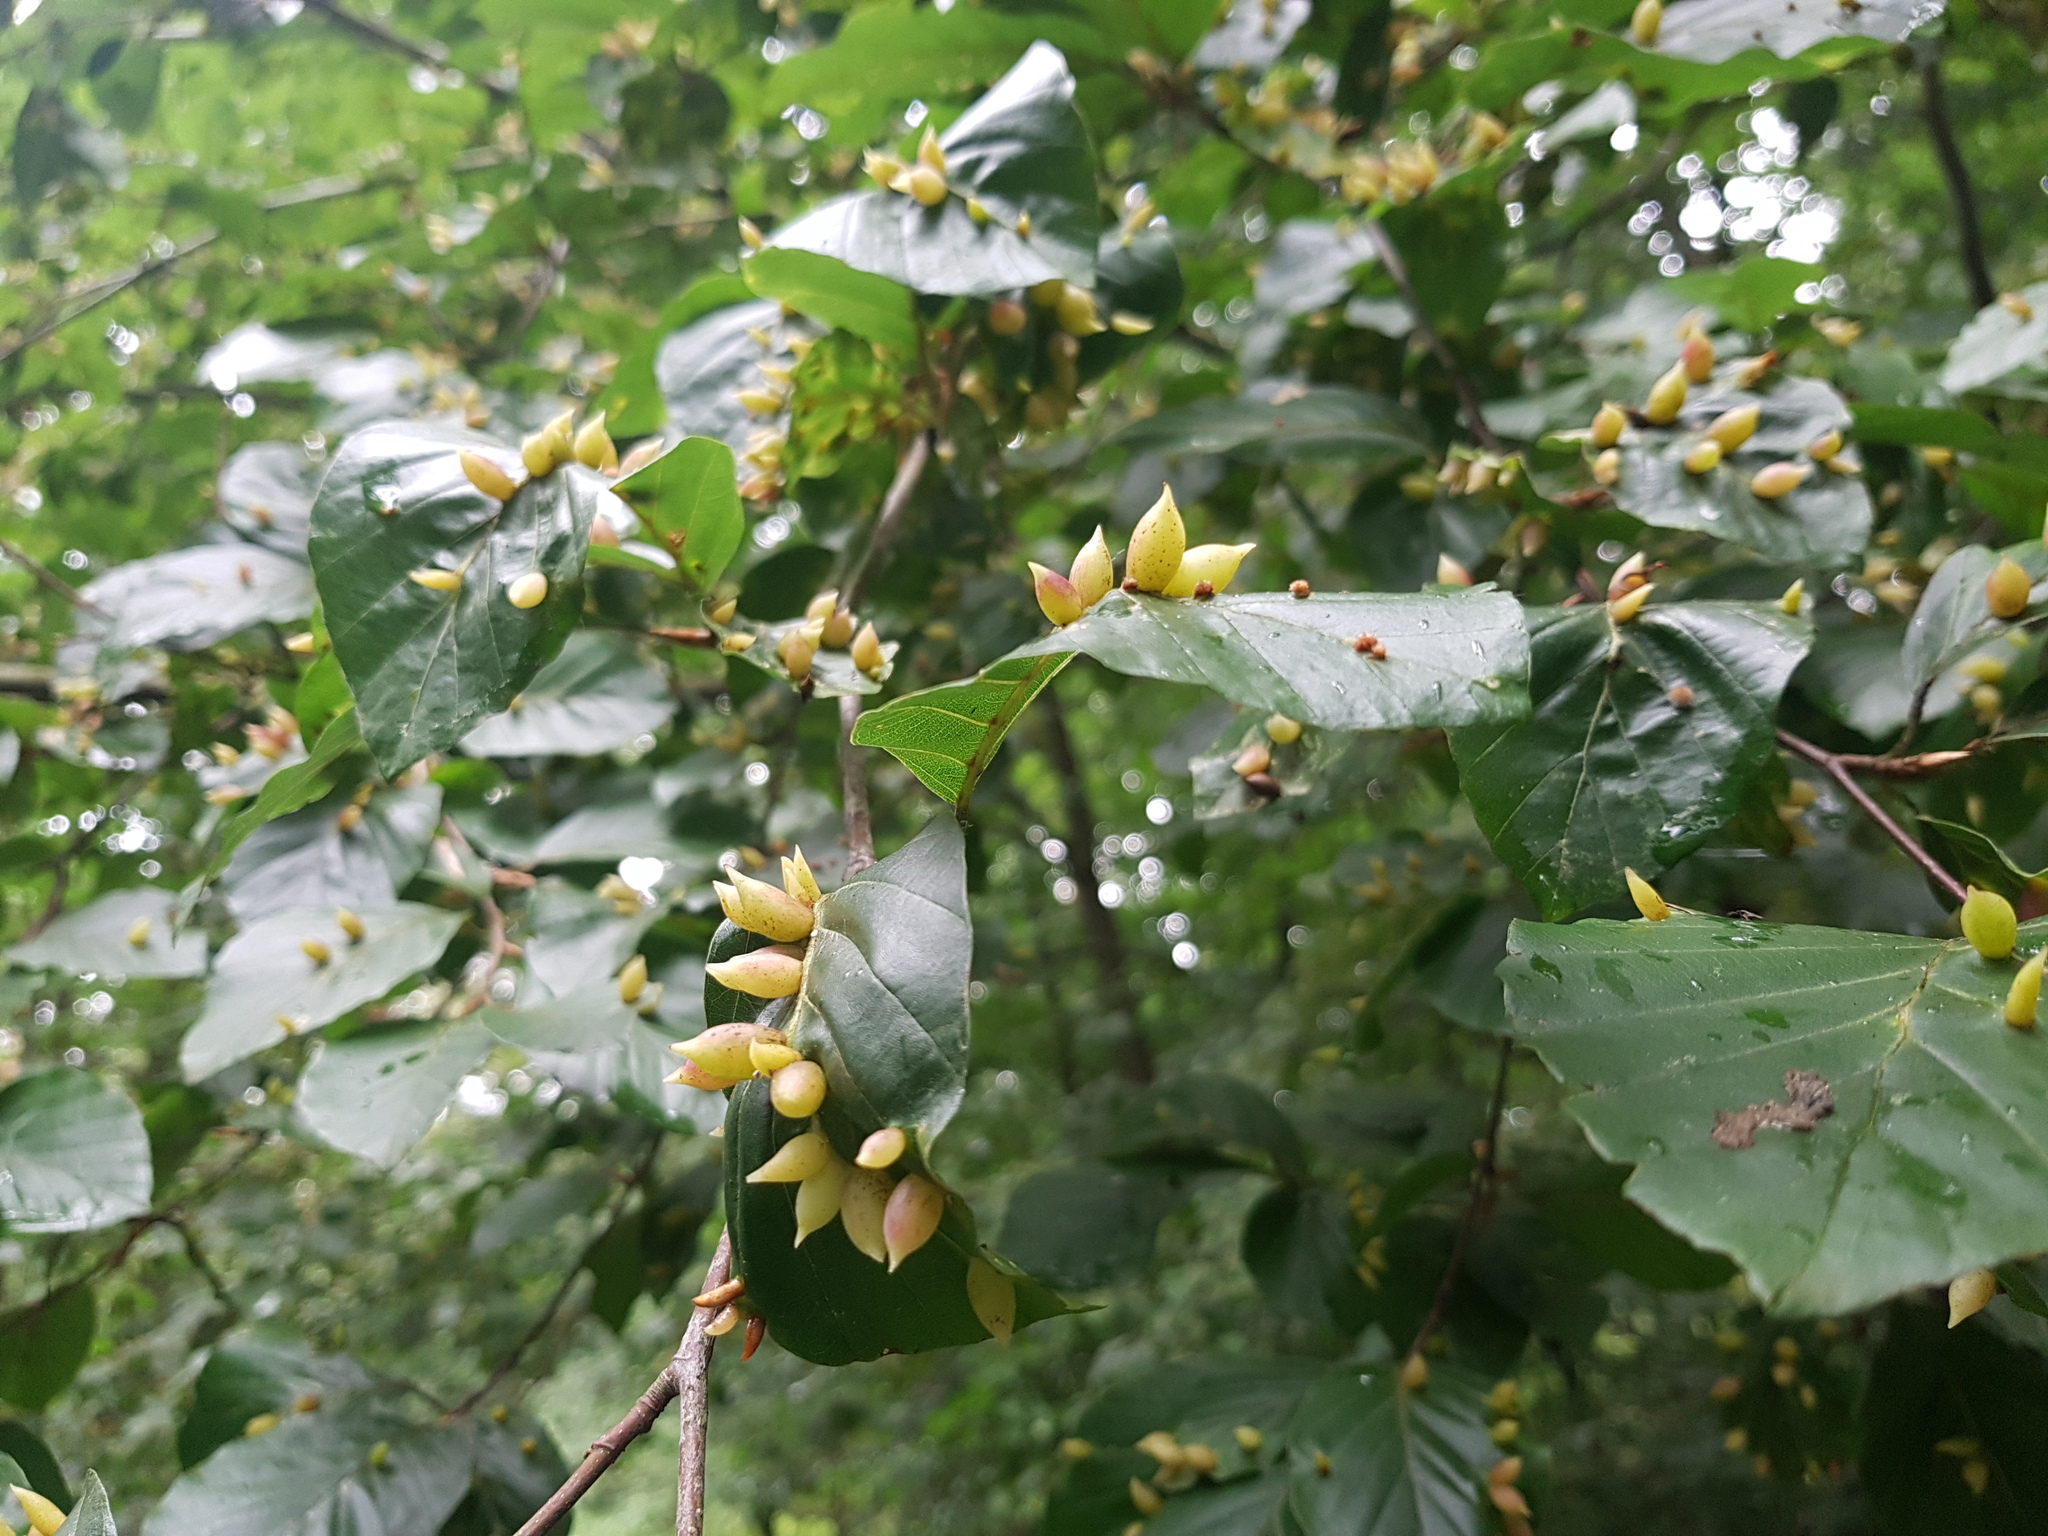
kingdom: Animalia
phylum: Arthropoda
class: Insecta
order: Diptera
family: Cecidomyiidae
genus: Mikiola
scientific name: Mikiola fagi
